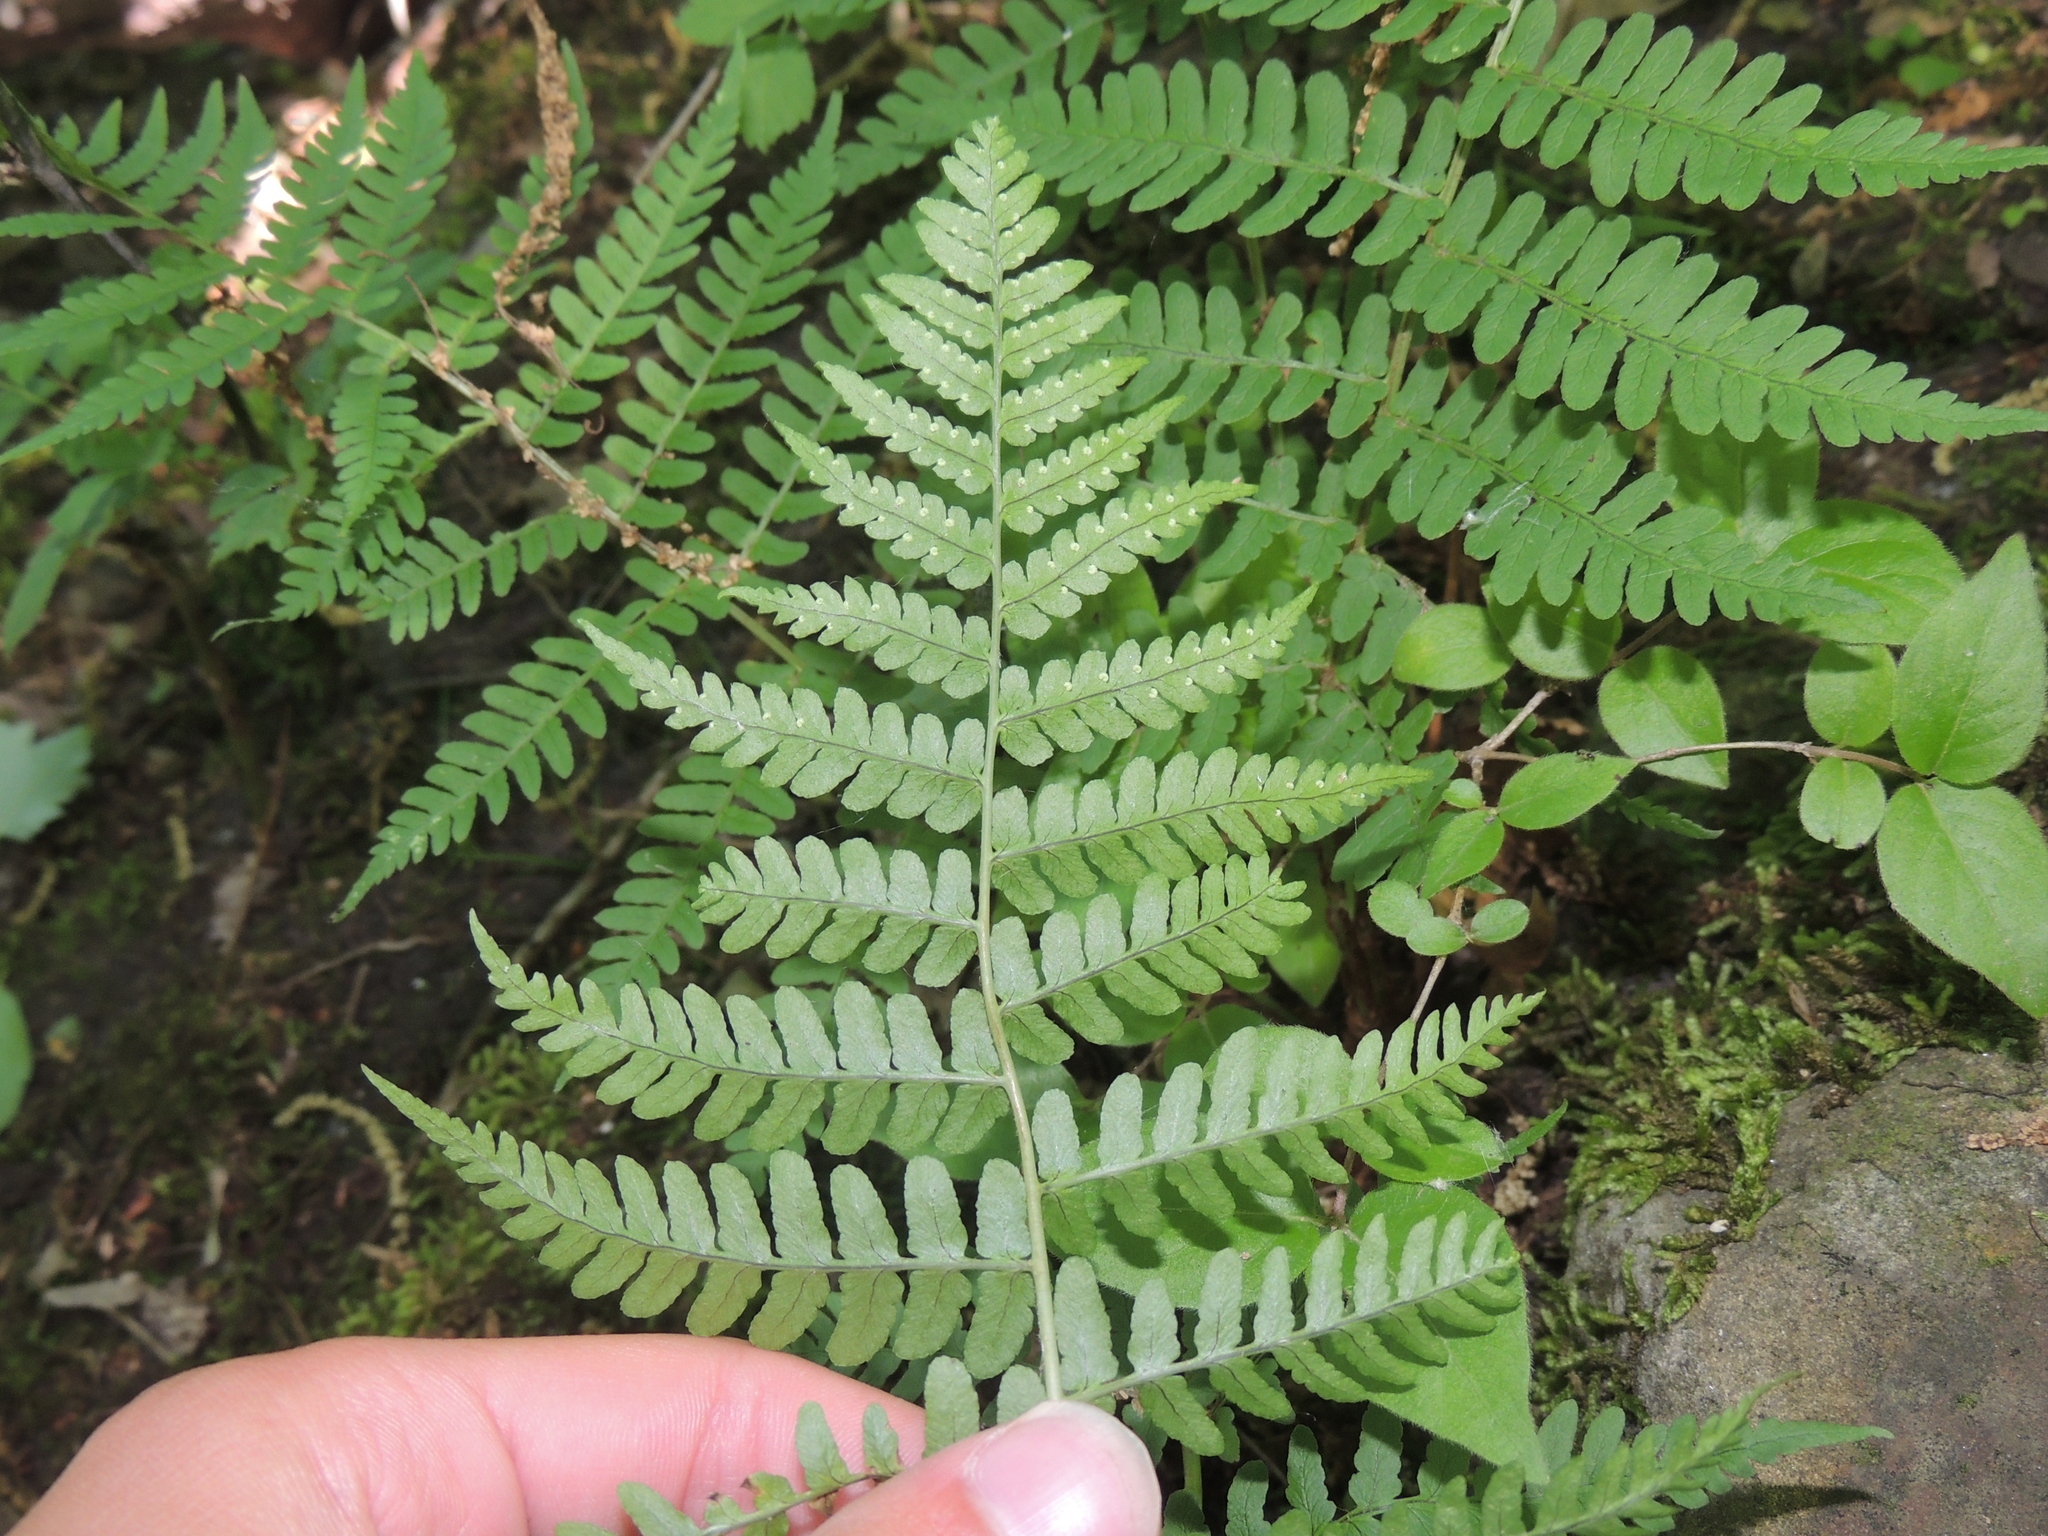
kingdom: Plantae
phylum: Tracheophyta
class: Polypodiopsida
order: Polypodiales
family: Dryopteridaceae
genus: Dryopteris
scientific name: Dryopteris marginalis
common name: Marginal wood fern
